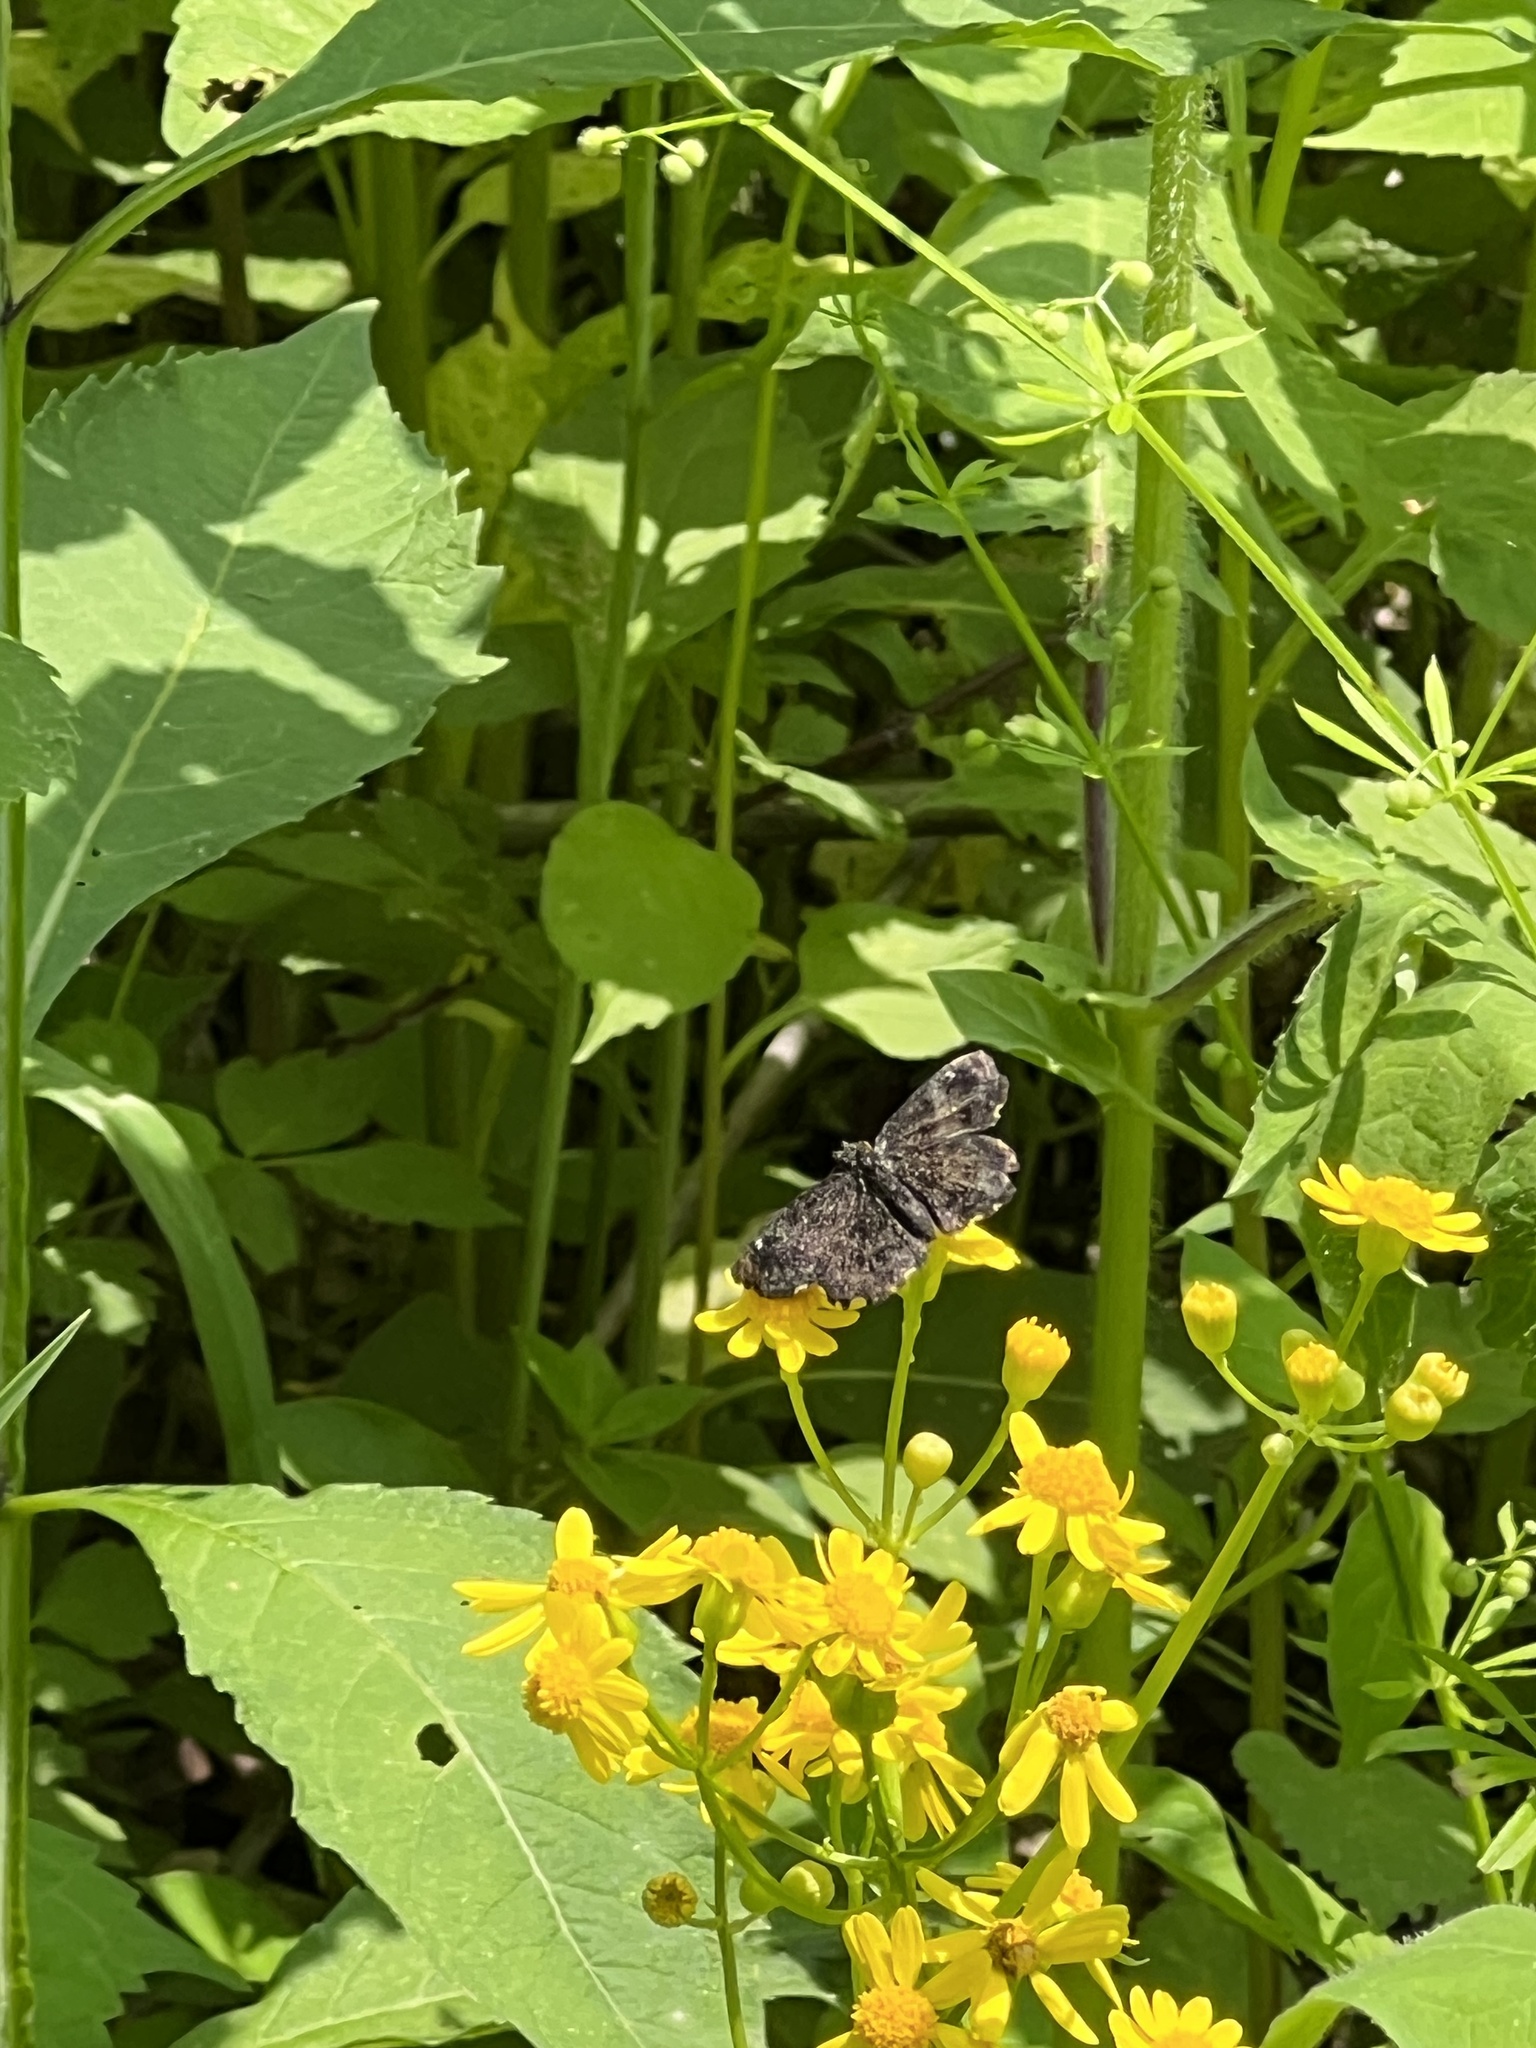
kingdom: Animalia
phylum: Arthropoda
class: Insecta
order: Lepidoptera
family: Hesperiidae
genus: Staphylus
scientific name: Staphylus mazans
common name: Mazans scallopwing
